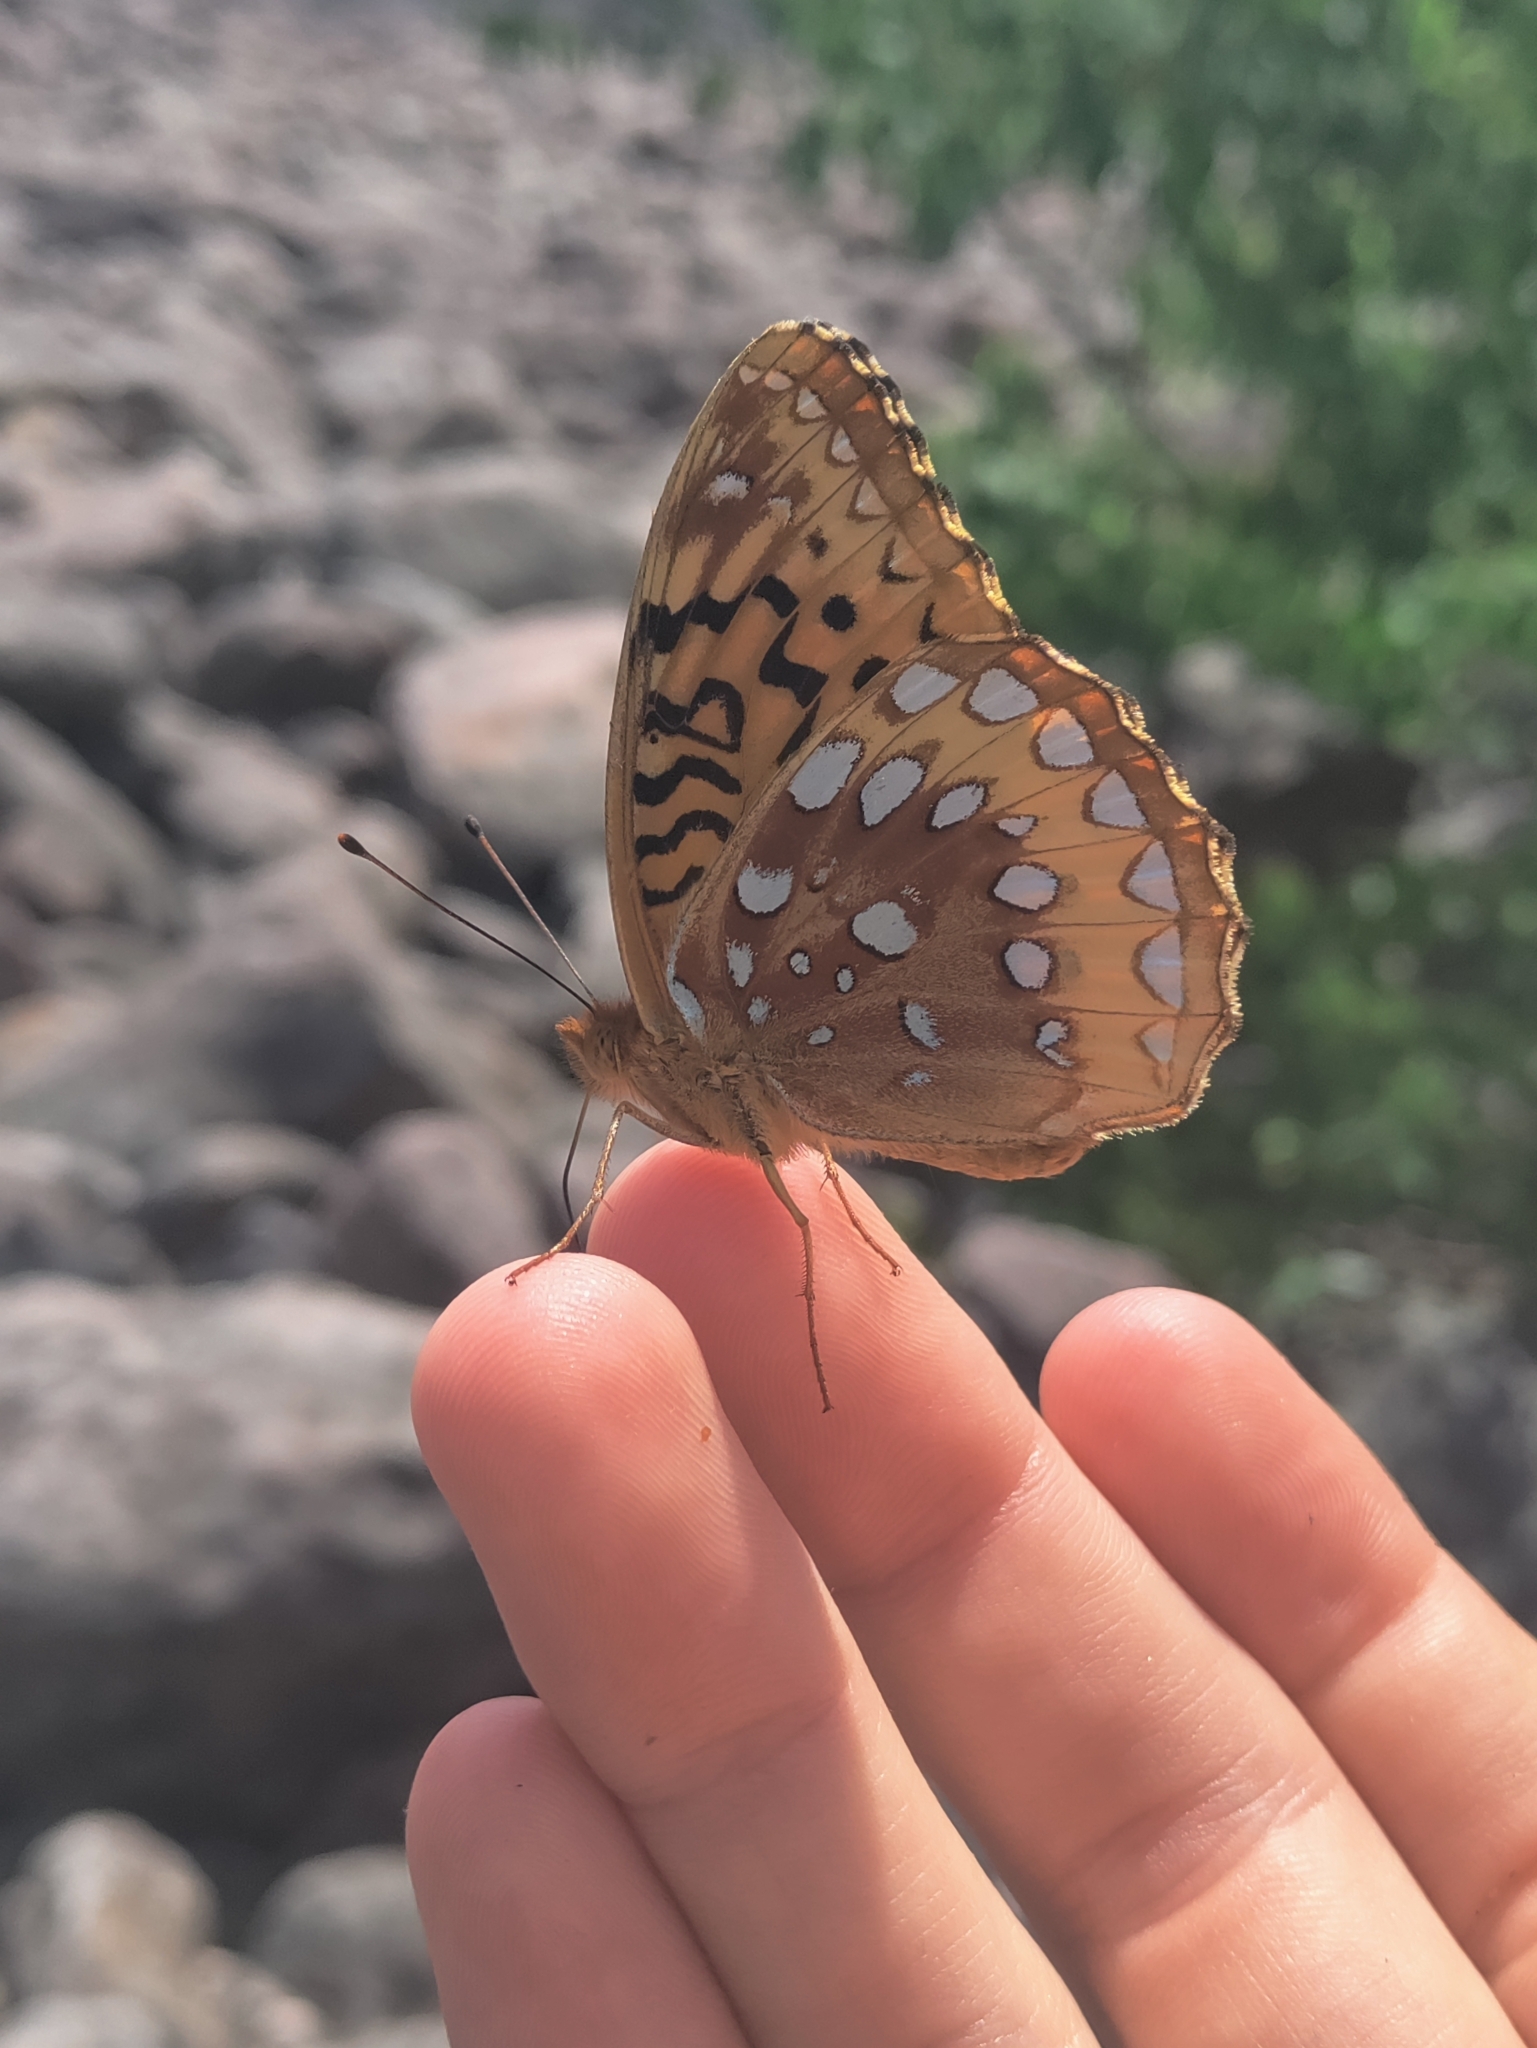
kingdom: Animalia
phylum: Arthropoda
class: Insecta
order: Lepidoptera
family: Nymphalidae
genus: Speyeria
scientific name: Speyeria cybele
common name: Great spangled fritillary
